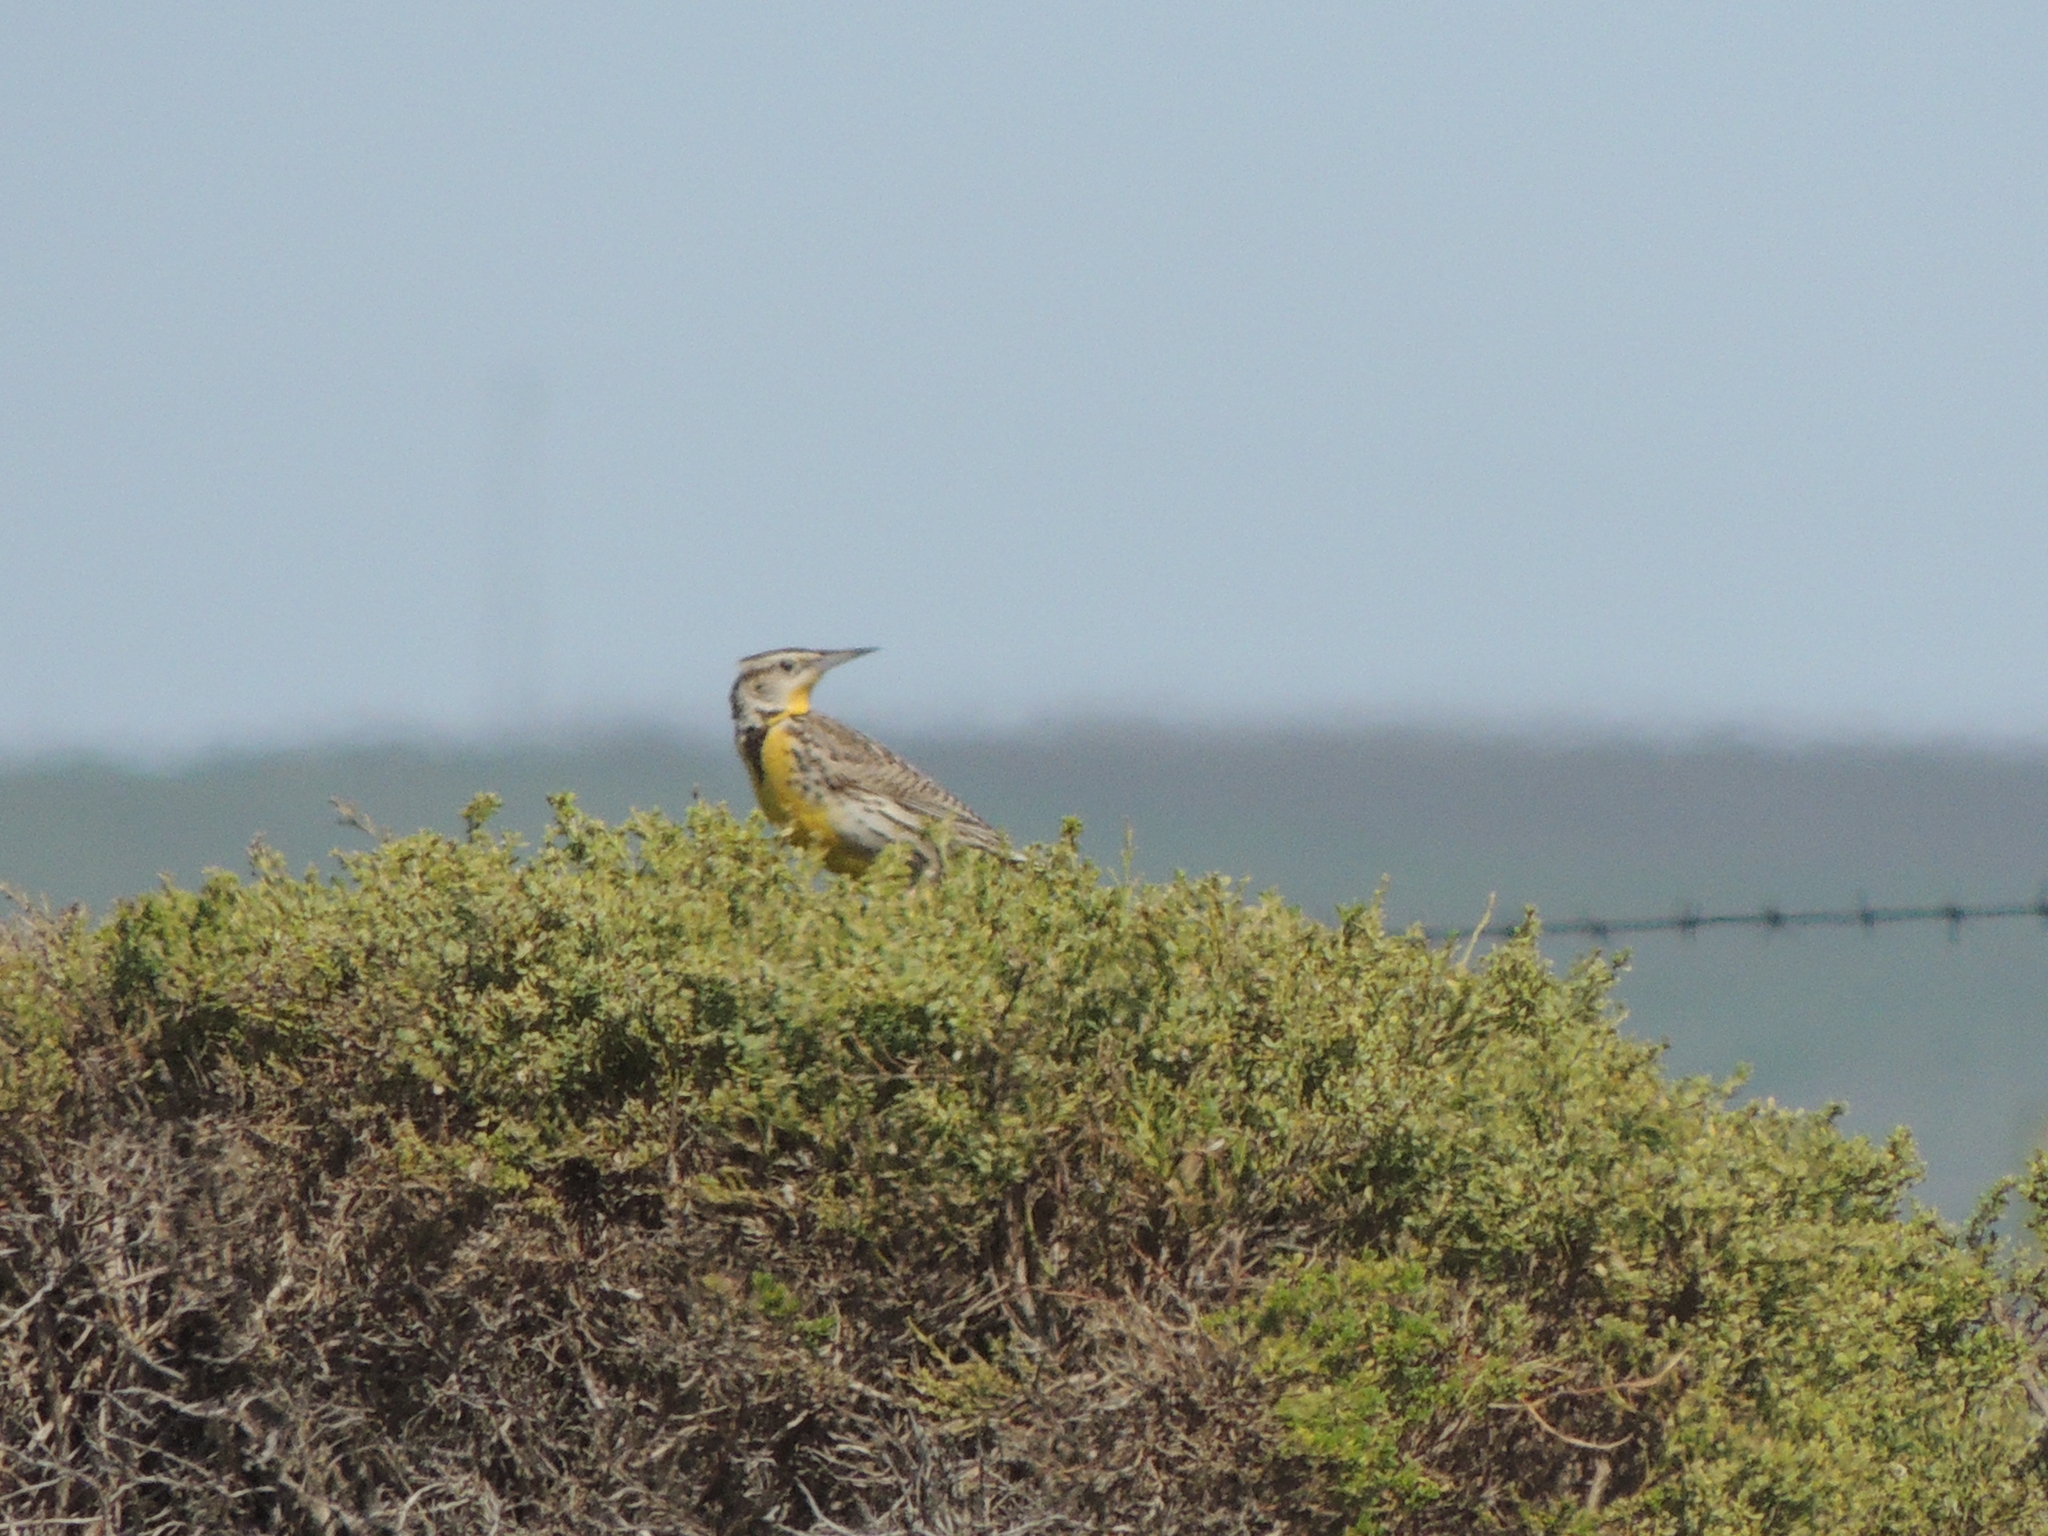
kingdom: Animalia
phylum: Chordata
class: Aves
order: Passeriformes
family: Icteridae
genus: Sturnella
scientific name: Sturnella neglecta
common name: Western meadowlark
